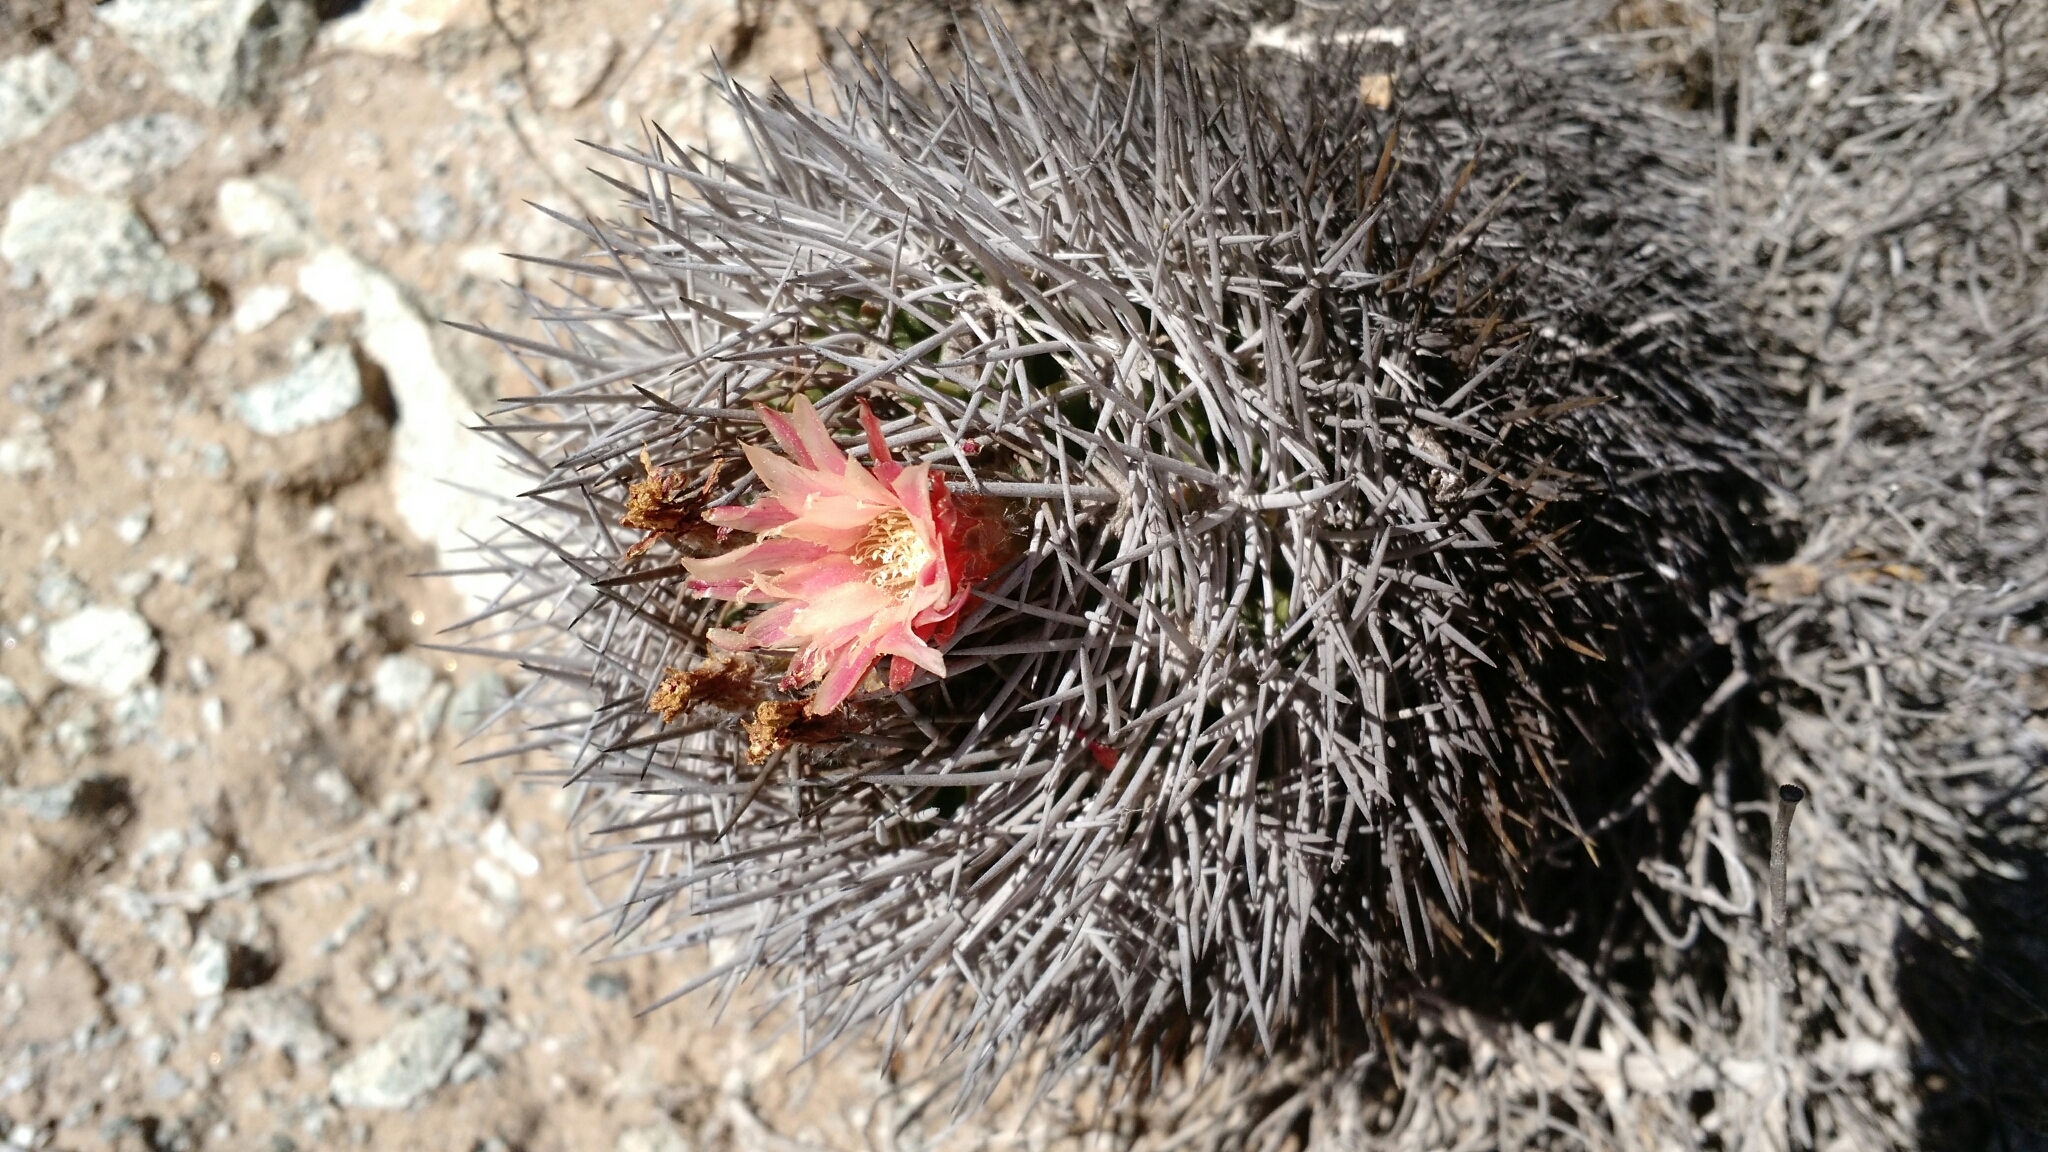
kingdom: Plantae
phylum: Tracheophyta
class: Magnoliopsida
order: Caryophyllales
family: Cactaceae
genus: Eriosyce
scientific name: Eriosyce confinis
